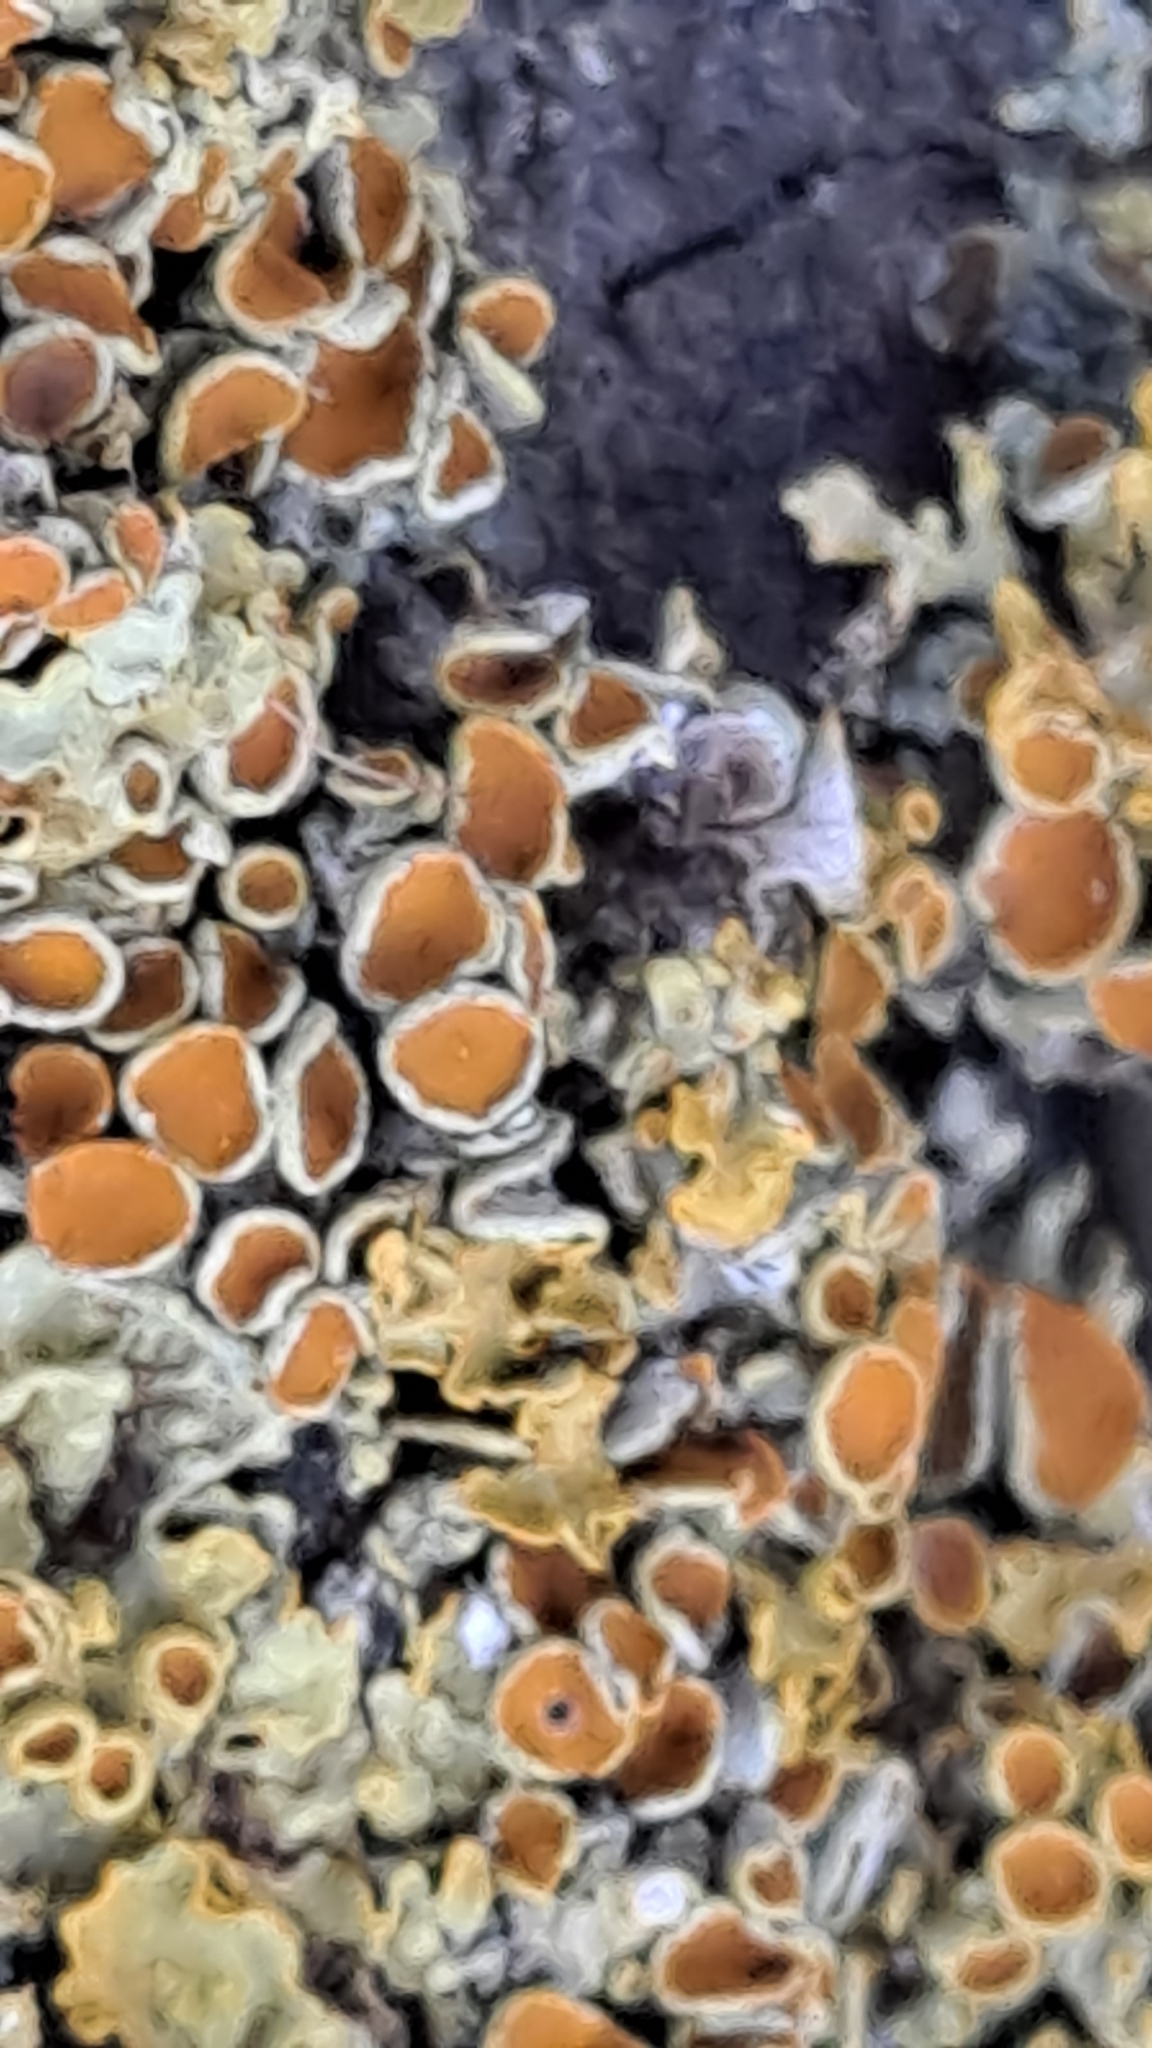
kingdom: Fungi
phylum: Ascomycota
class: Lecanoromycetes
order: Teloschistales
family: Teloschistaceae
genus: Xanthoria
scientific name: Xanthoria parietina
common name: Common orange lichen
